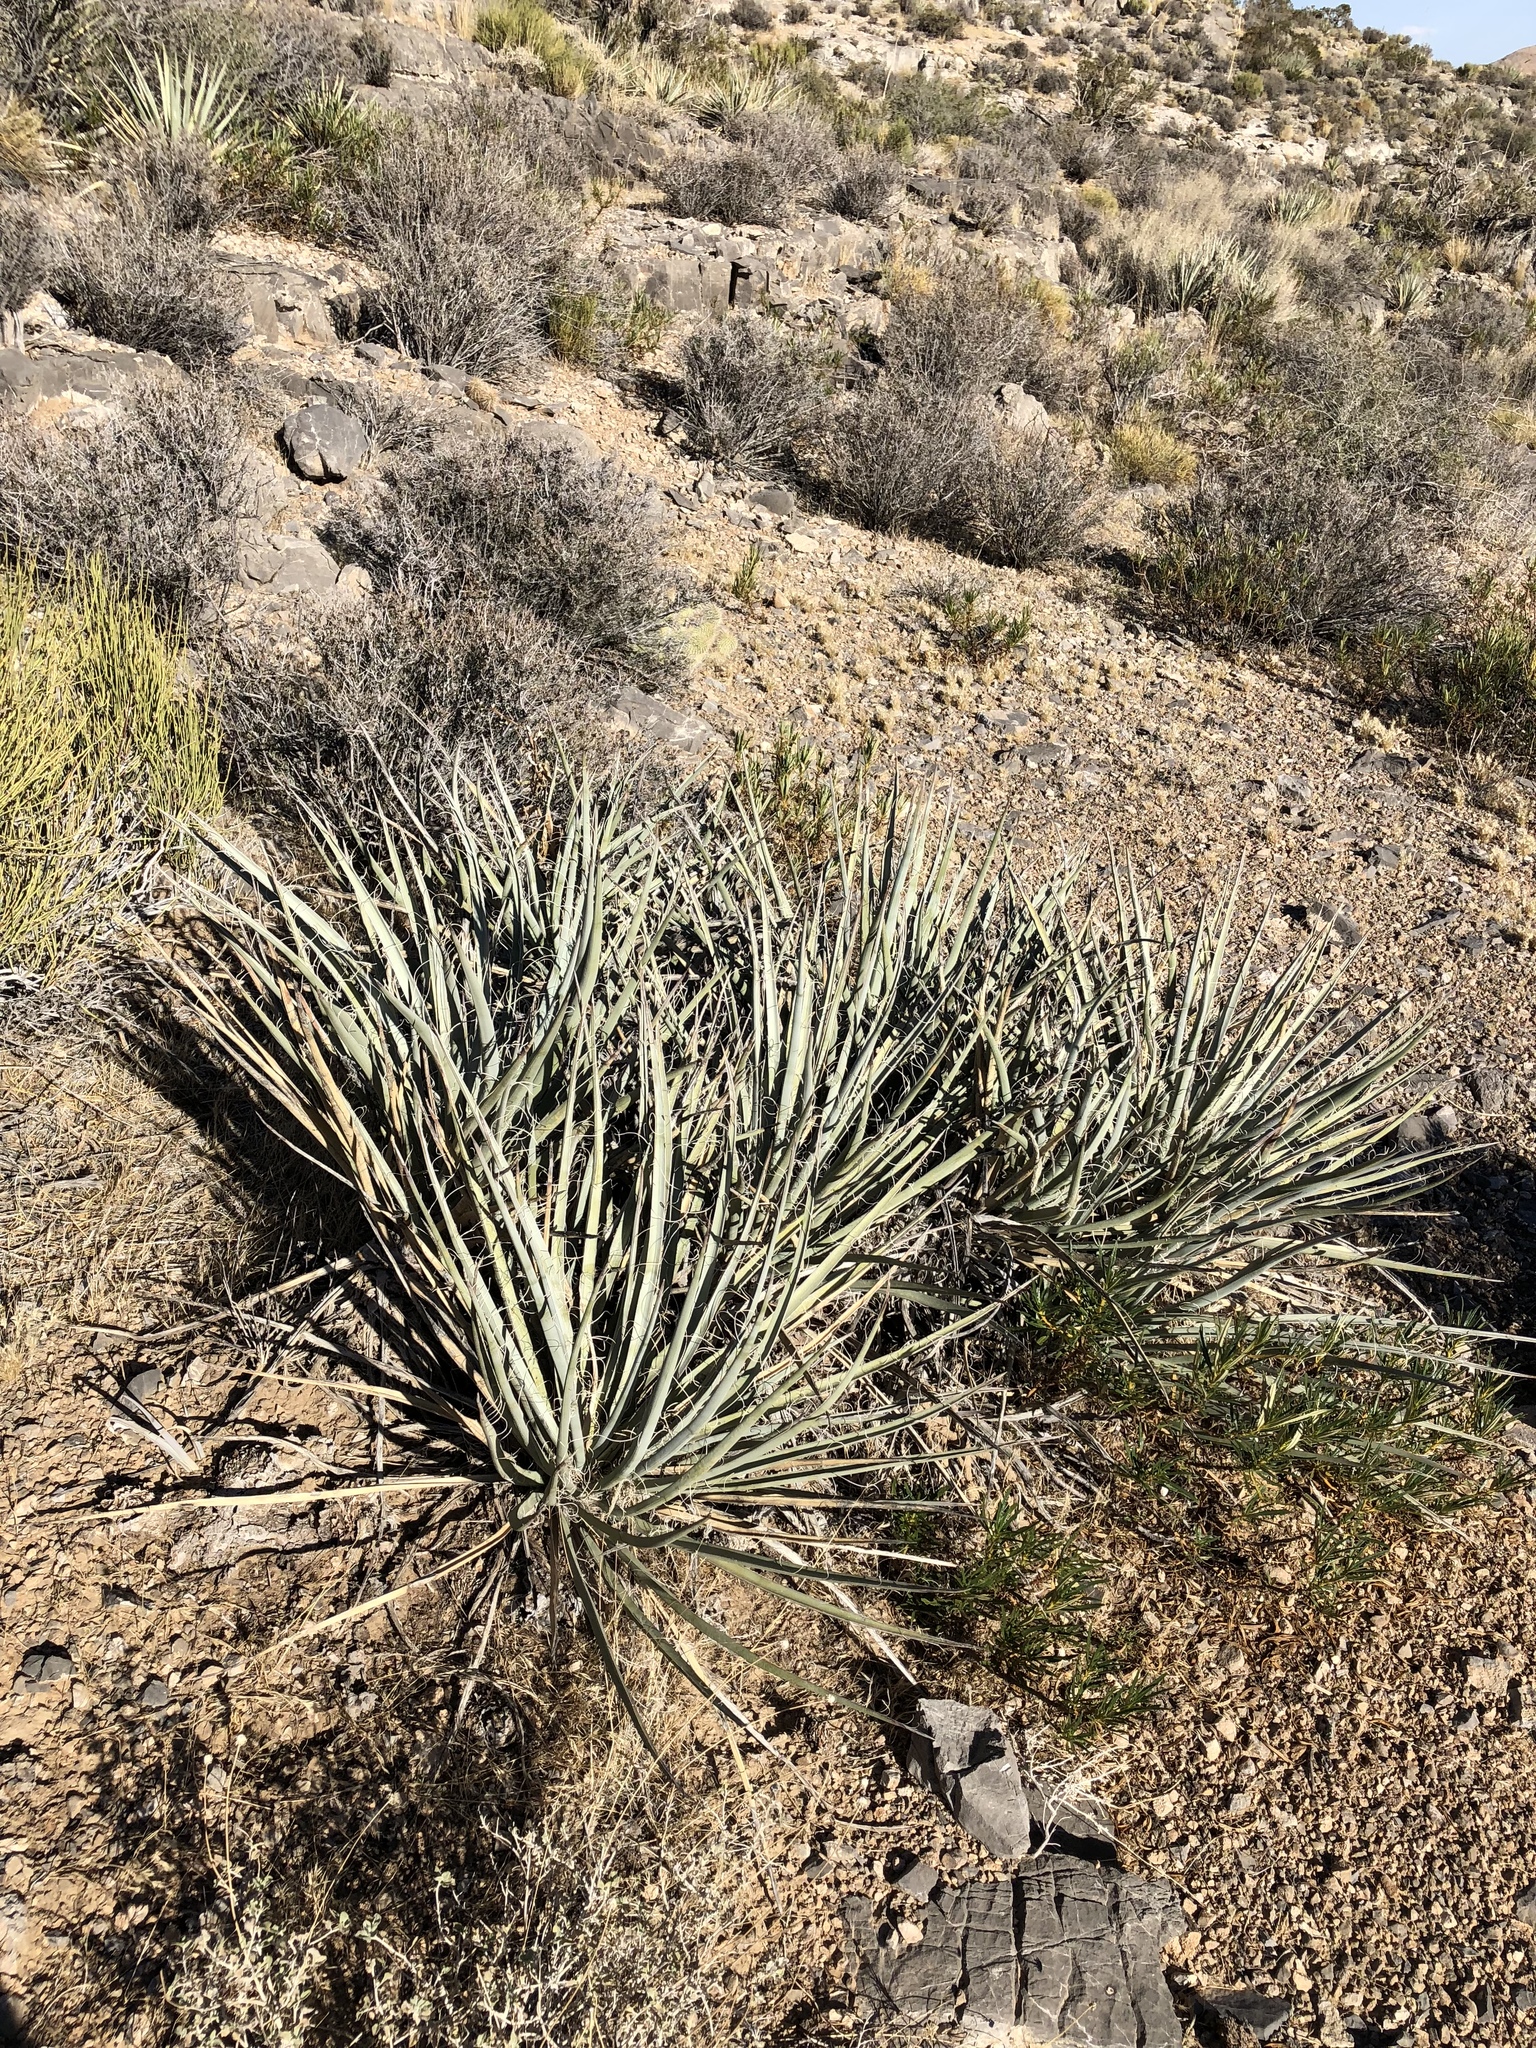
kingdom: Plantae
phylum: Tracheophyta
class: Liliopsida
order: Asparagales
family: Asparagaceae
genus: Yucca
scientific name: Yucca baccata
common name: Banana yucca
